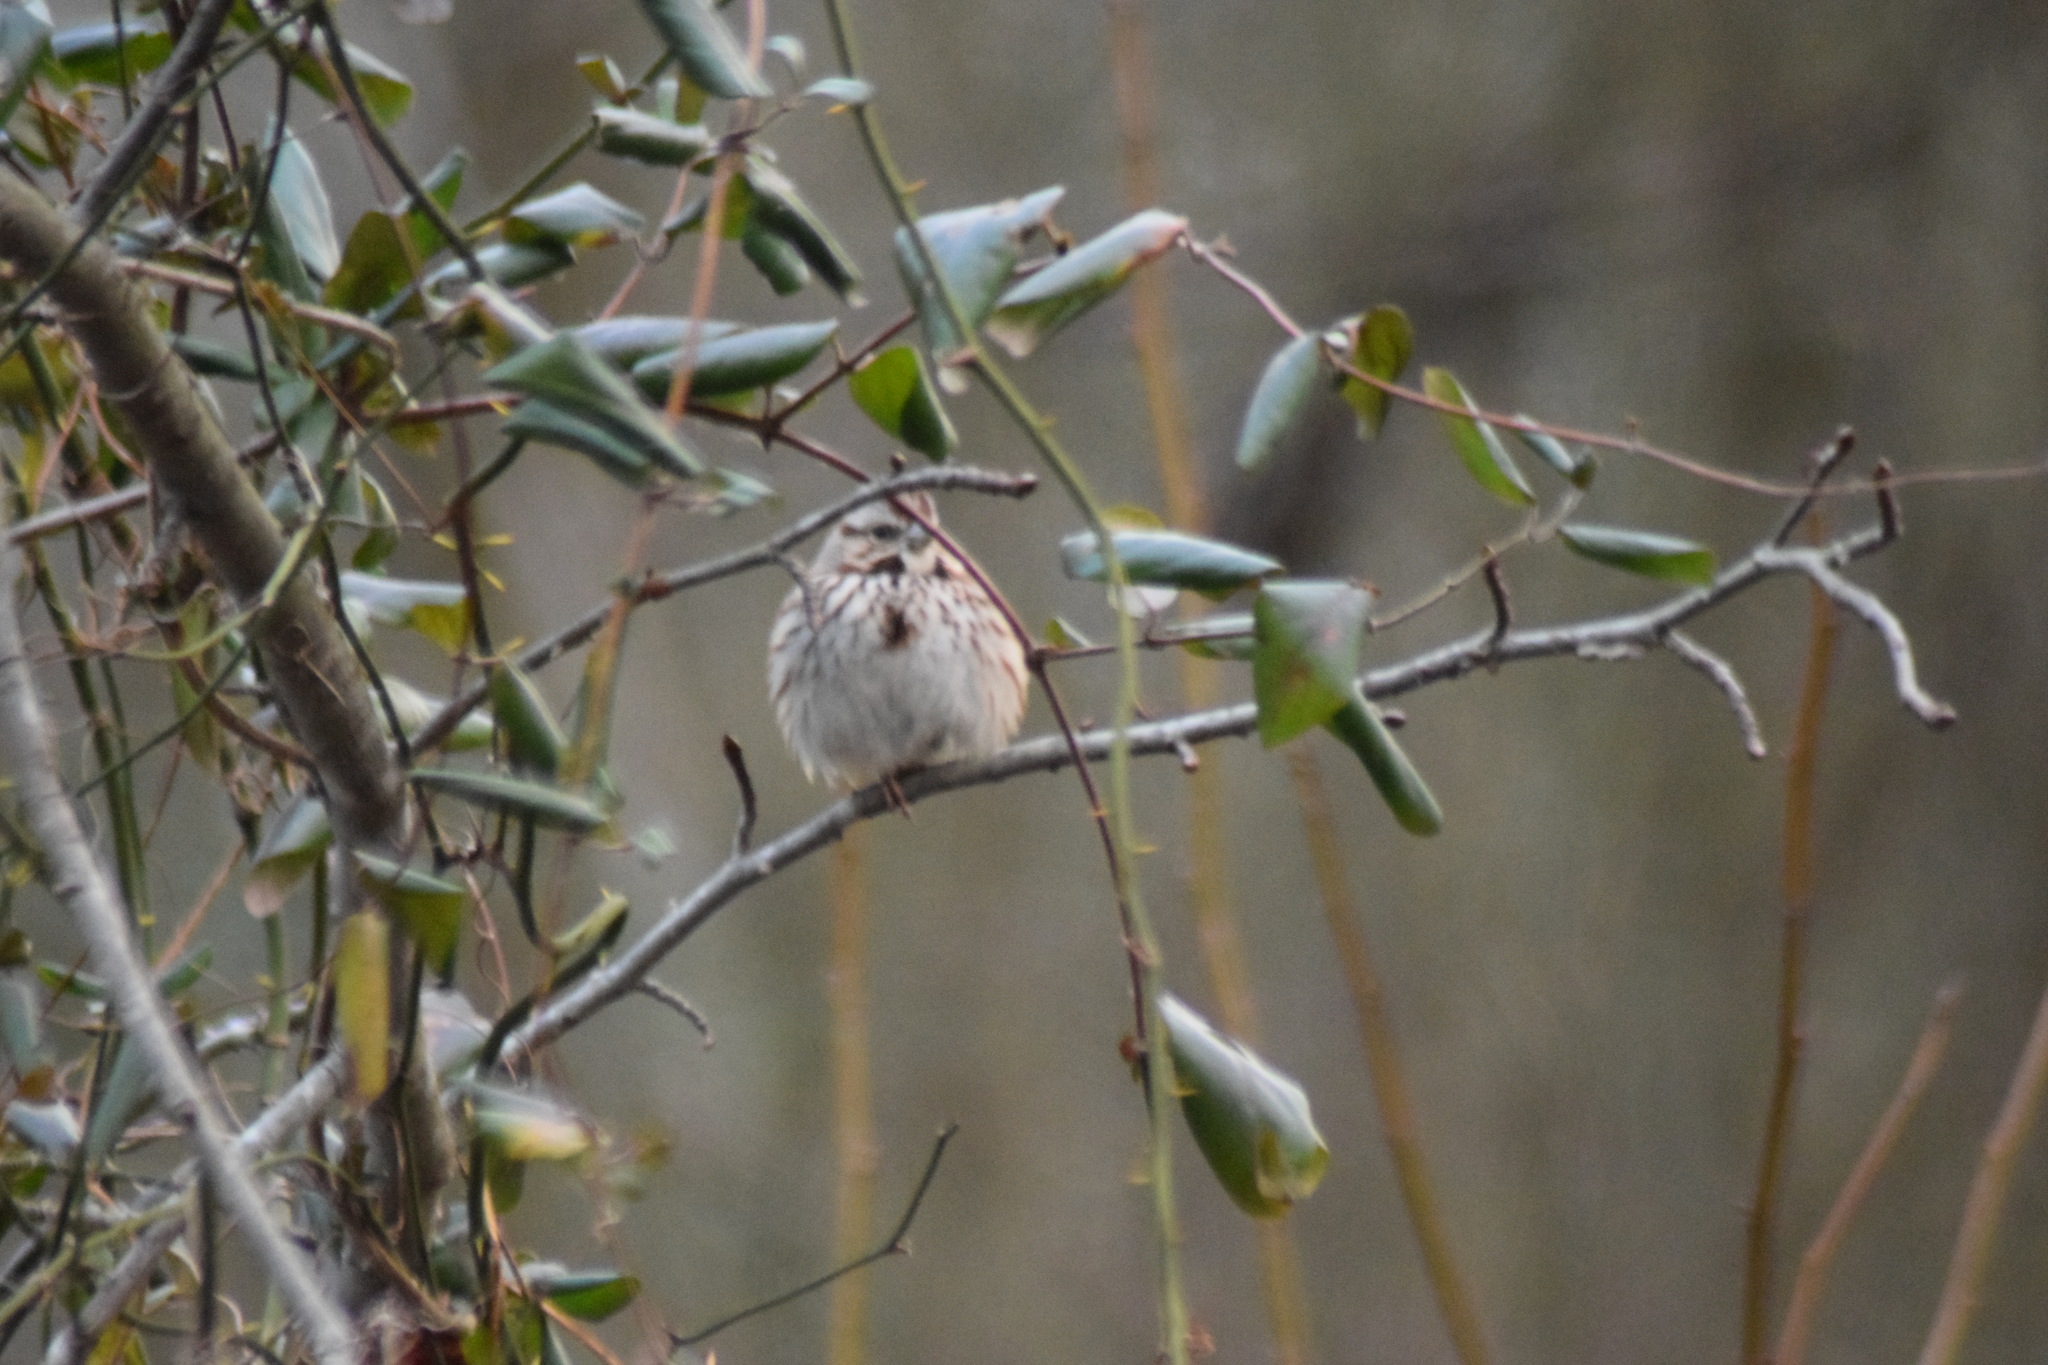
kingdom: Animalia
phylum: Chordata
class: Aves
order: Passeriformes
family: Passerellidae
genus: Melospiza
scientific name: Melospiza melodia
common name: Song sparrow
